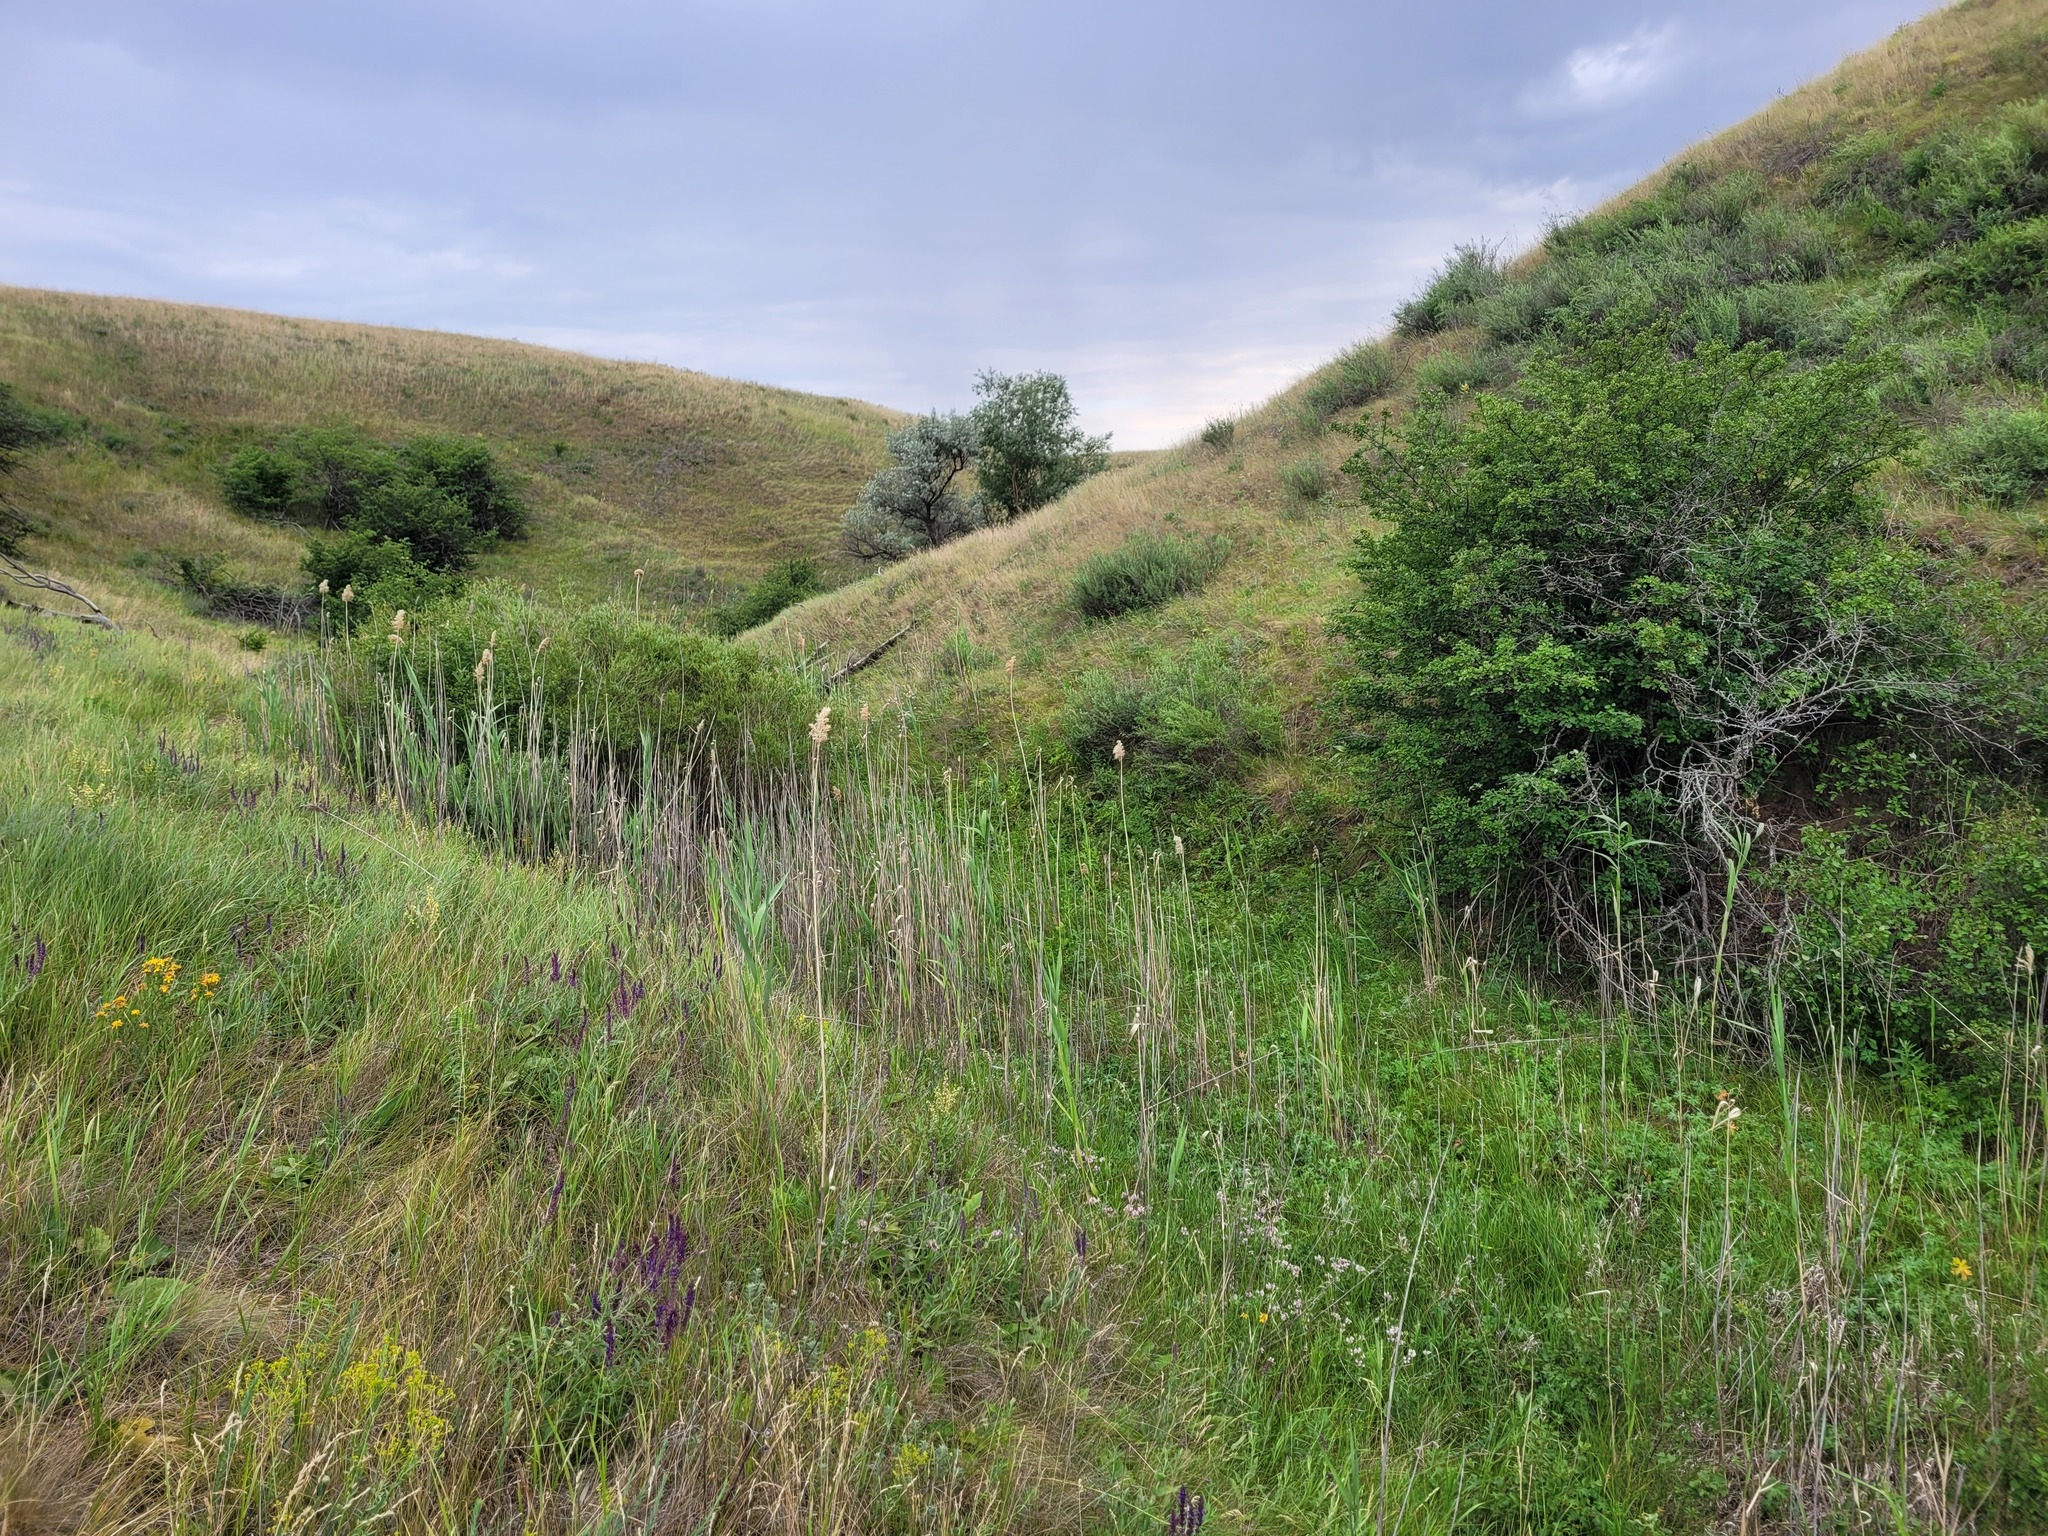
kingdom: Plantae
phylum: Tracheophyta
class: Liliopsida
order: Poales
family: Poaceae
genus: Phragmites
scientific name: Phragmites australis
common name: Common reed
